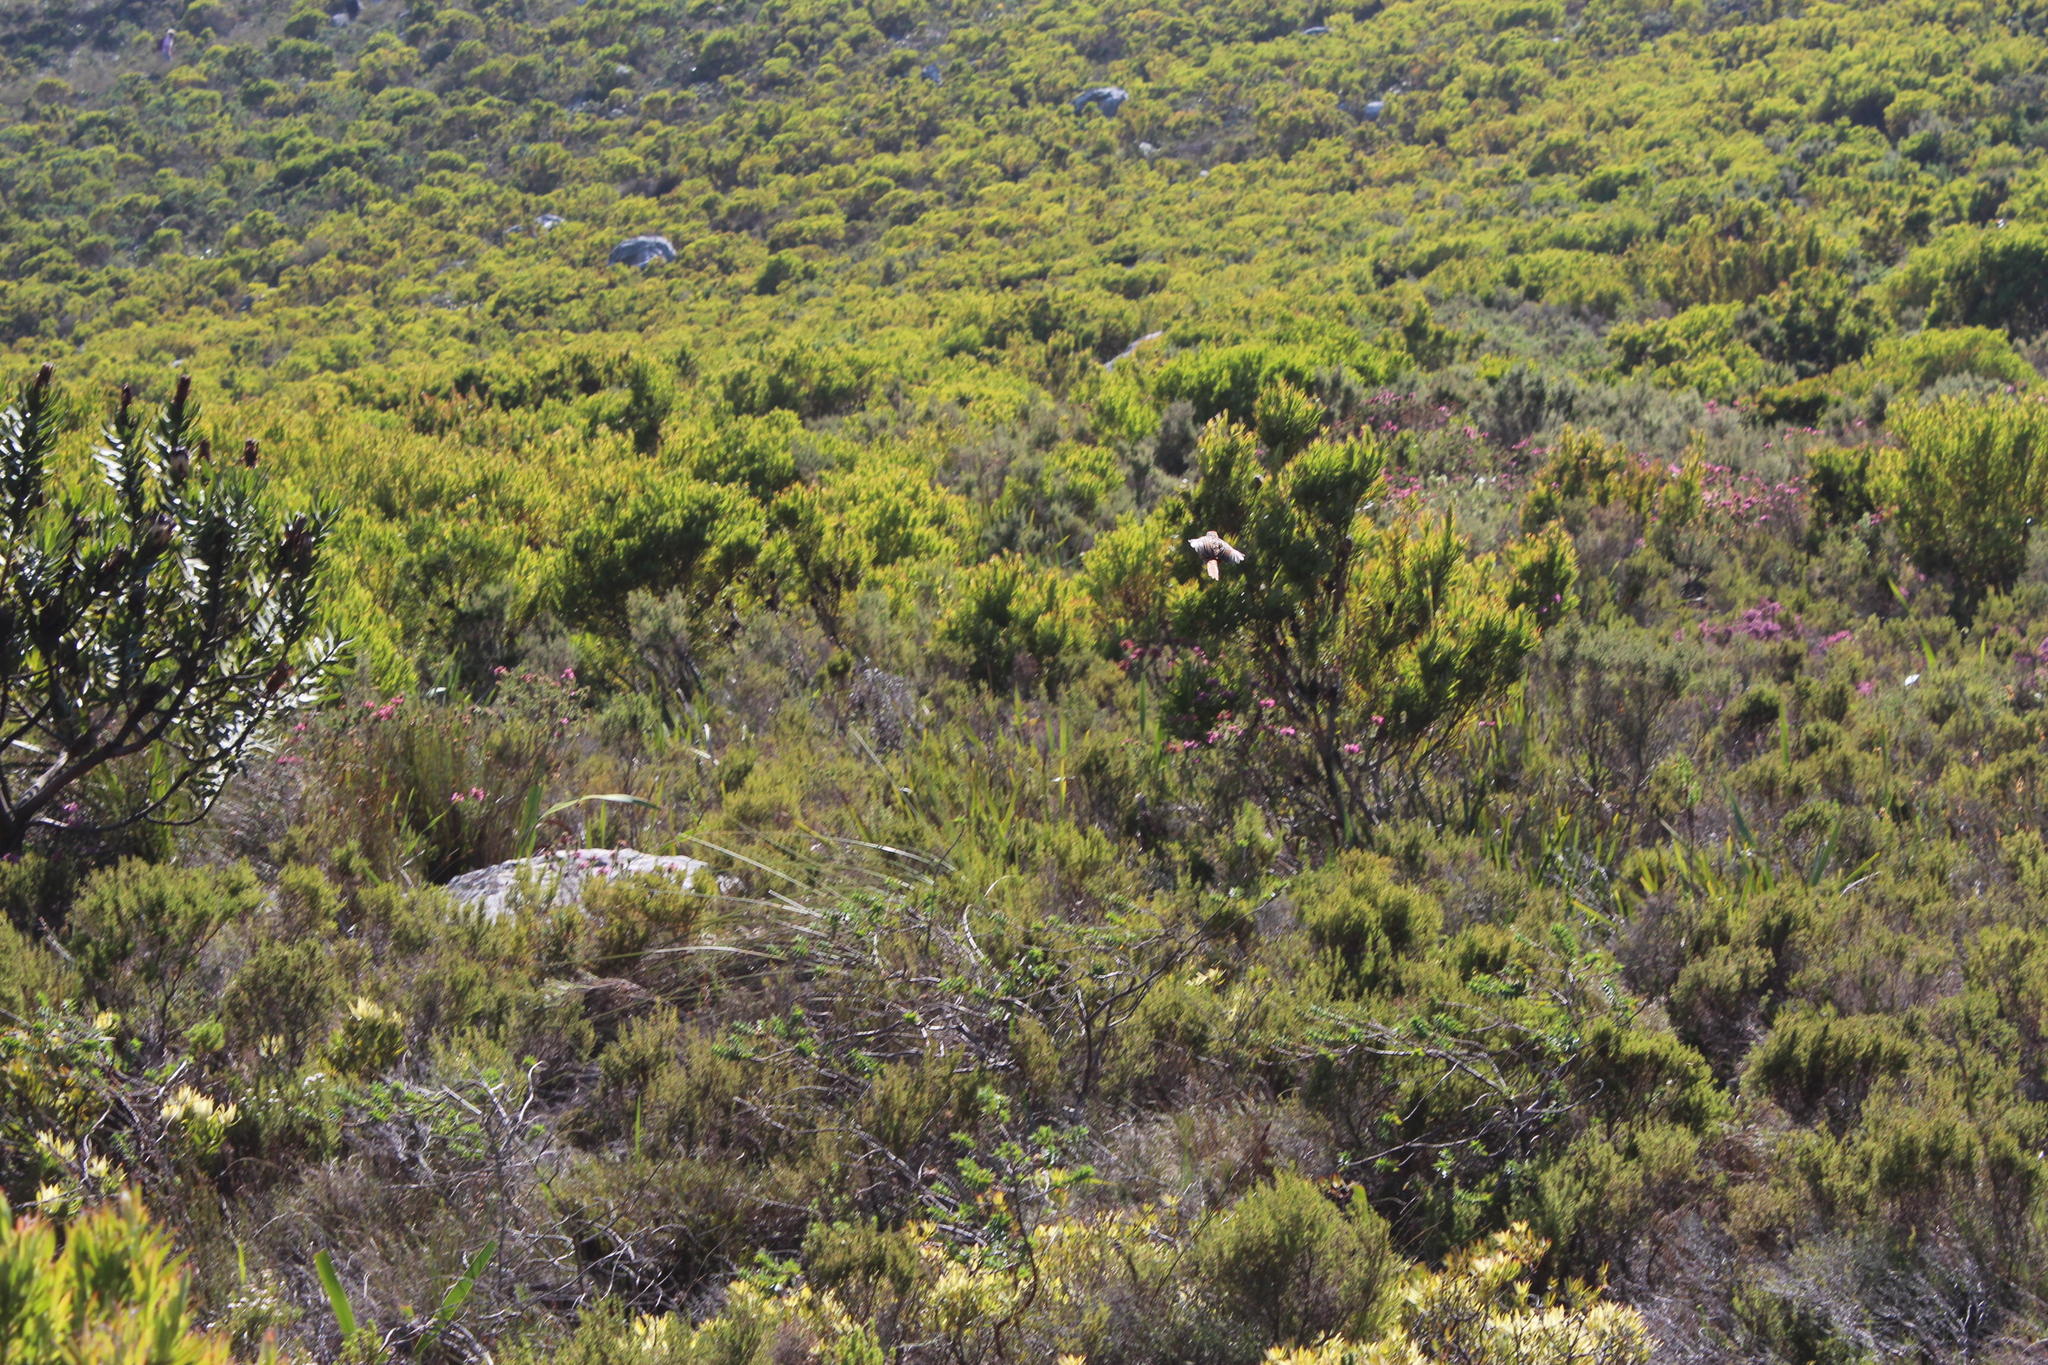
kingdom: Plantae
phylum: Tracheophyta
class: Magnoliopsida
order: Proteales
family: Proteaceae
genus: Leucadendron
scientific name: Leucadendron xanthoconus
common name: Sickle-leaf conebush
